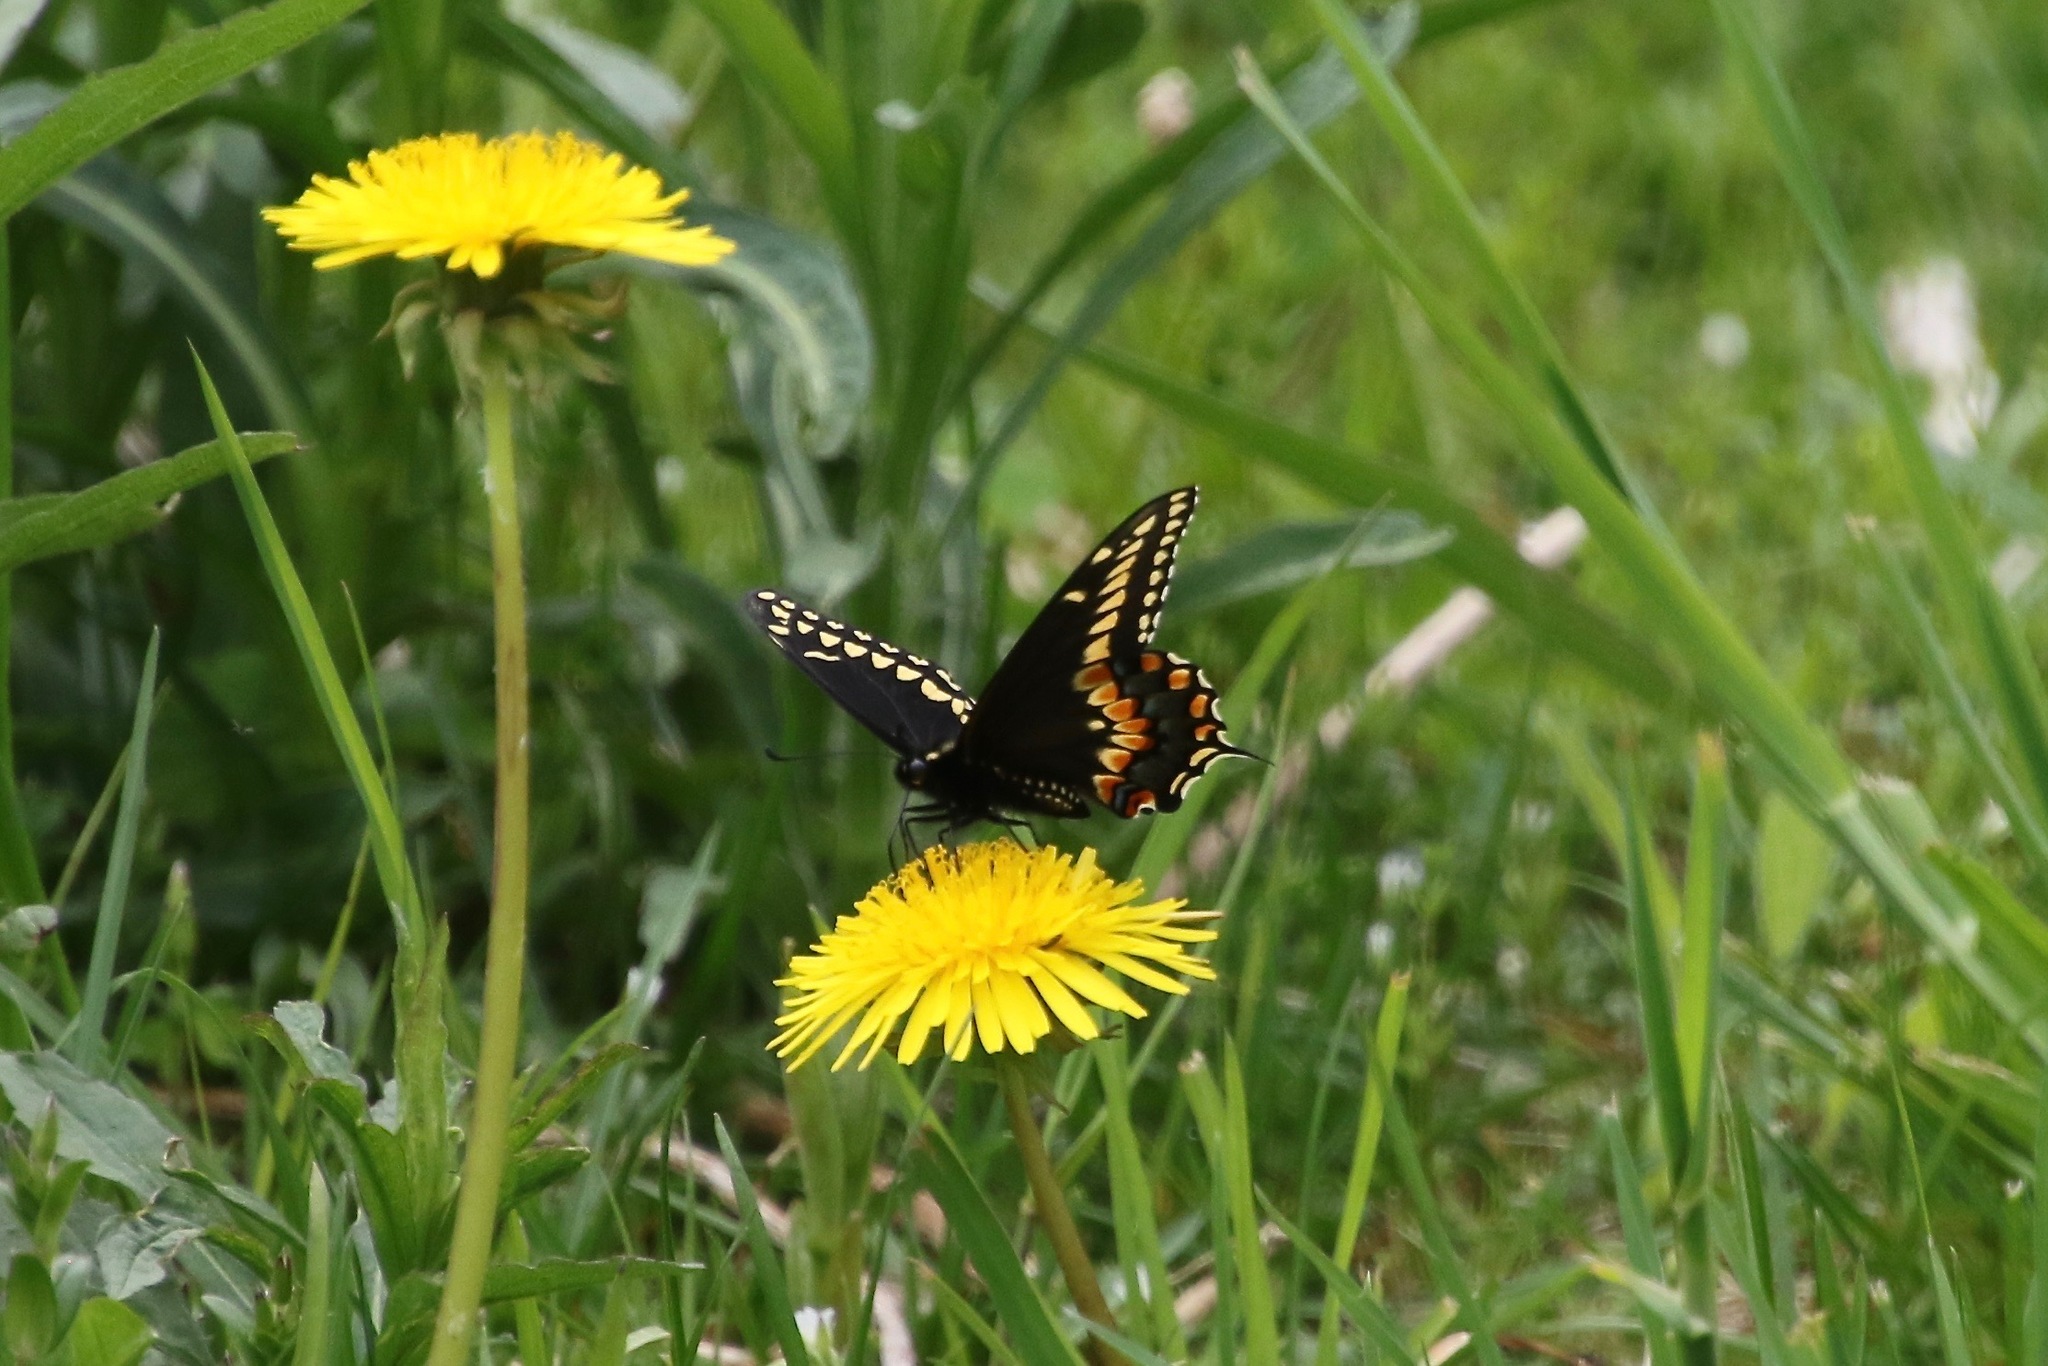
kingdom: Animalia
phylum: Arthropoda
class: Insecta
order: Lepidoptera
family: Papilionidae
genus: Papilio
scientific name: Papilio polyxenes
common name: Black swallowtail
